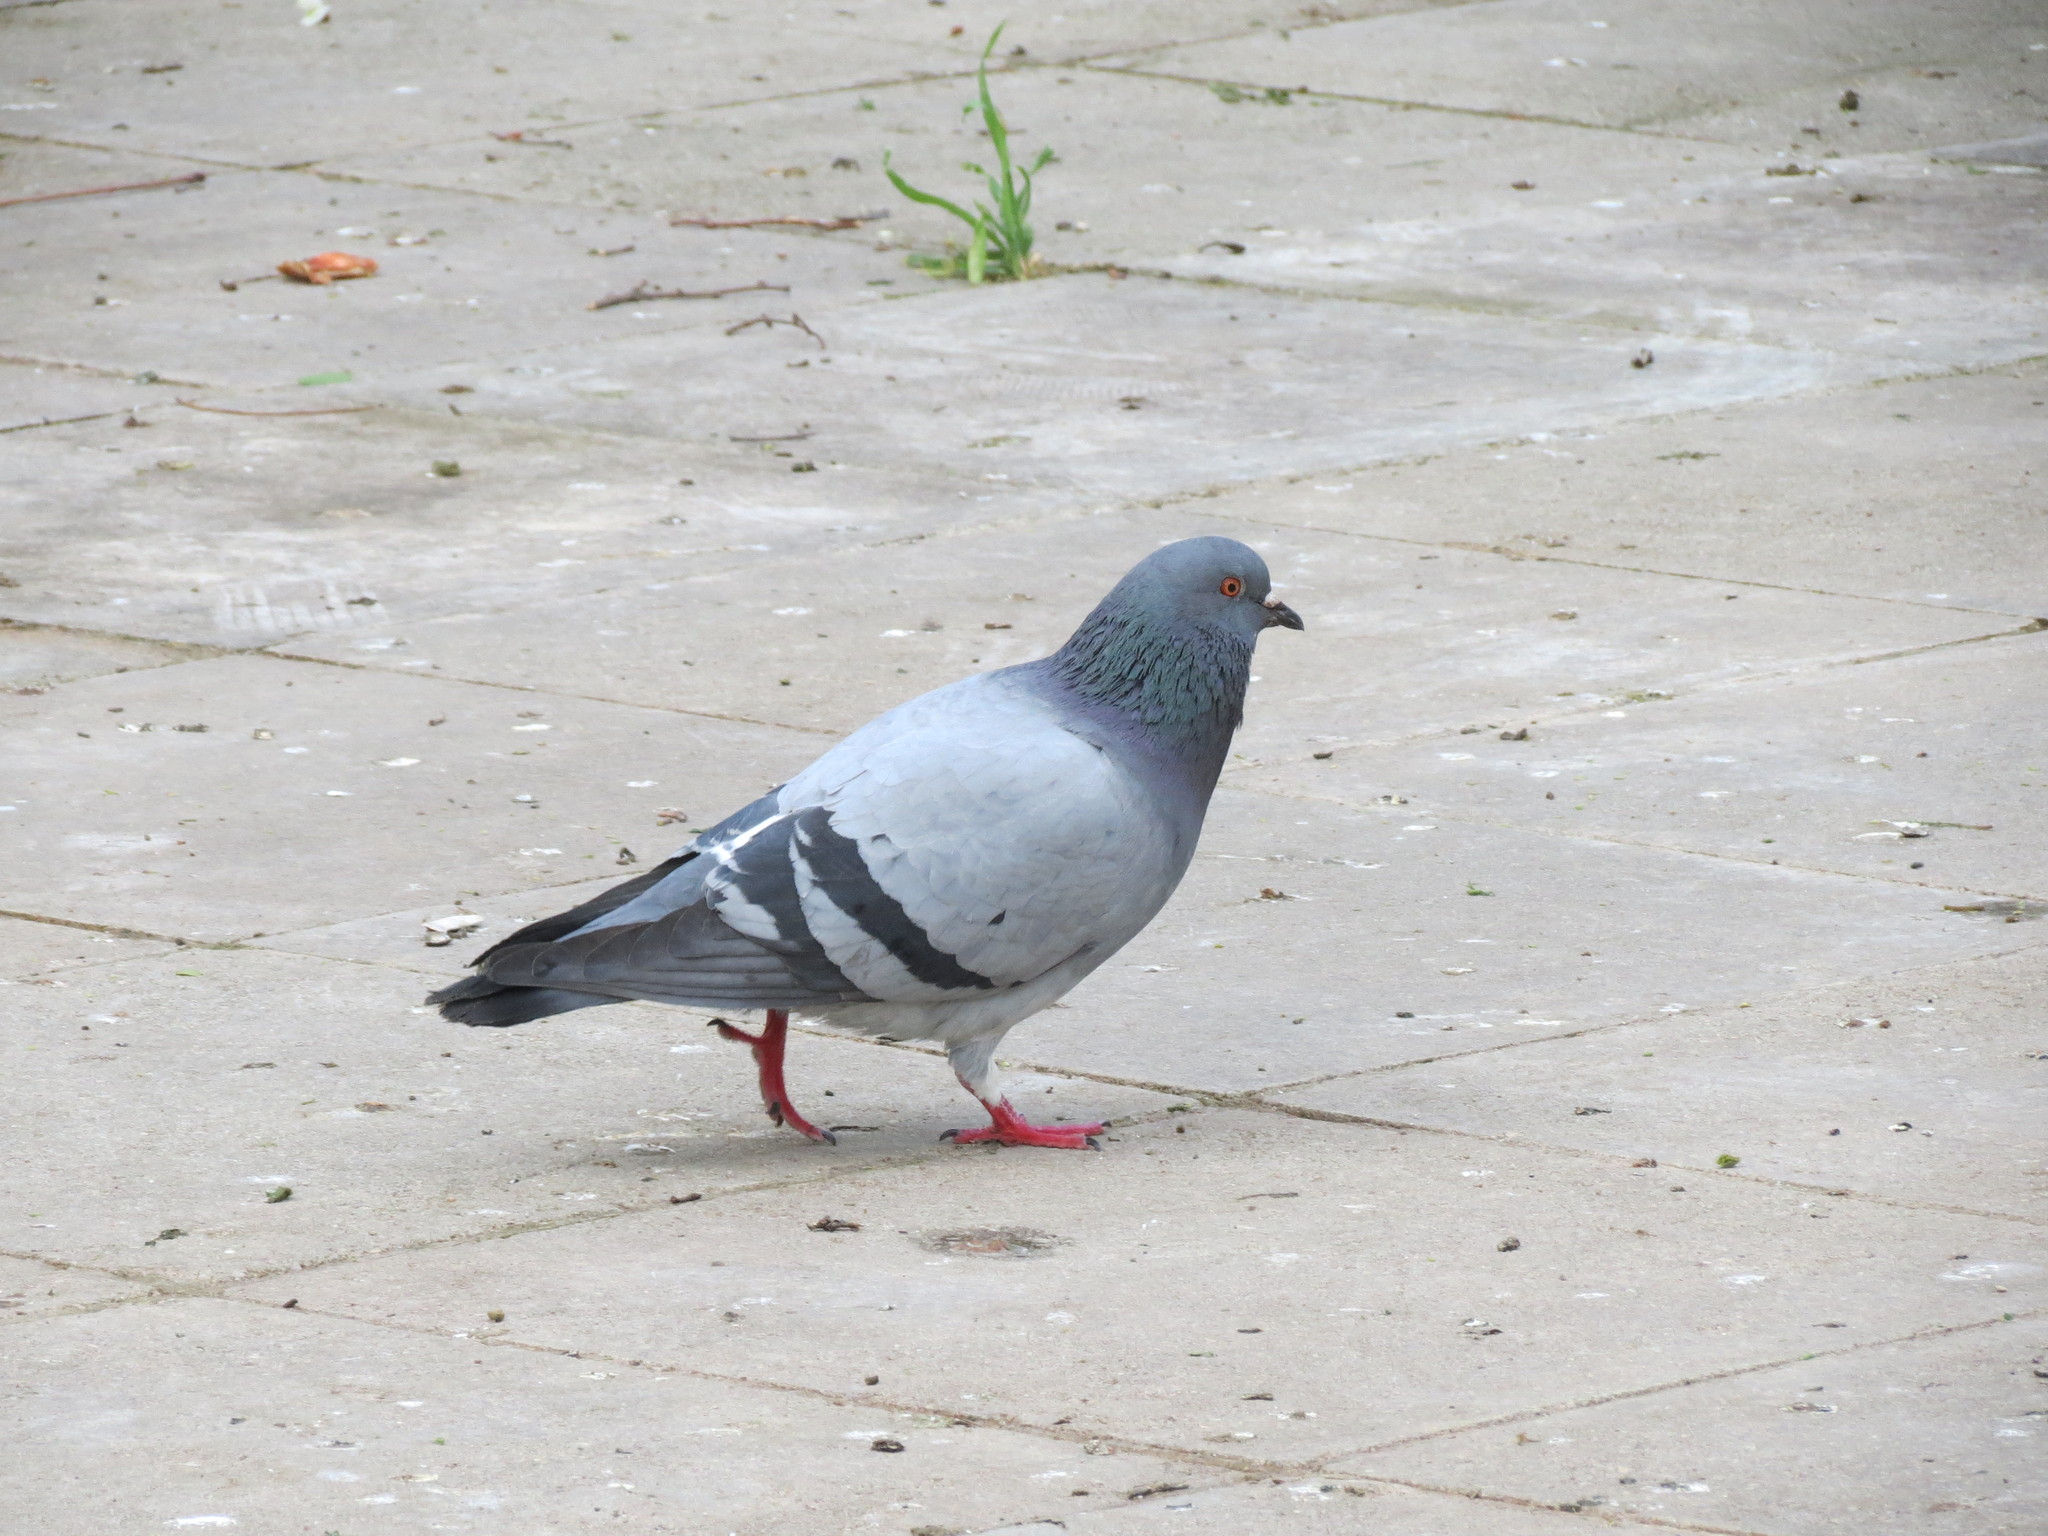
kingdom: Animalia
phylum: Chordata
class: Aves
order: Columbiformes
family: Columbidae
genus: Columba
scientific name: Columba livia
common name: Rock pigeon
